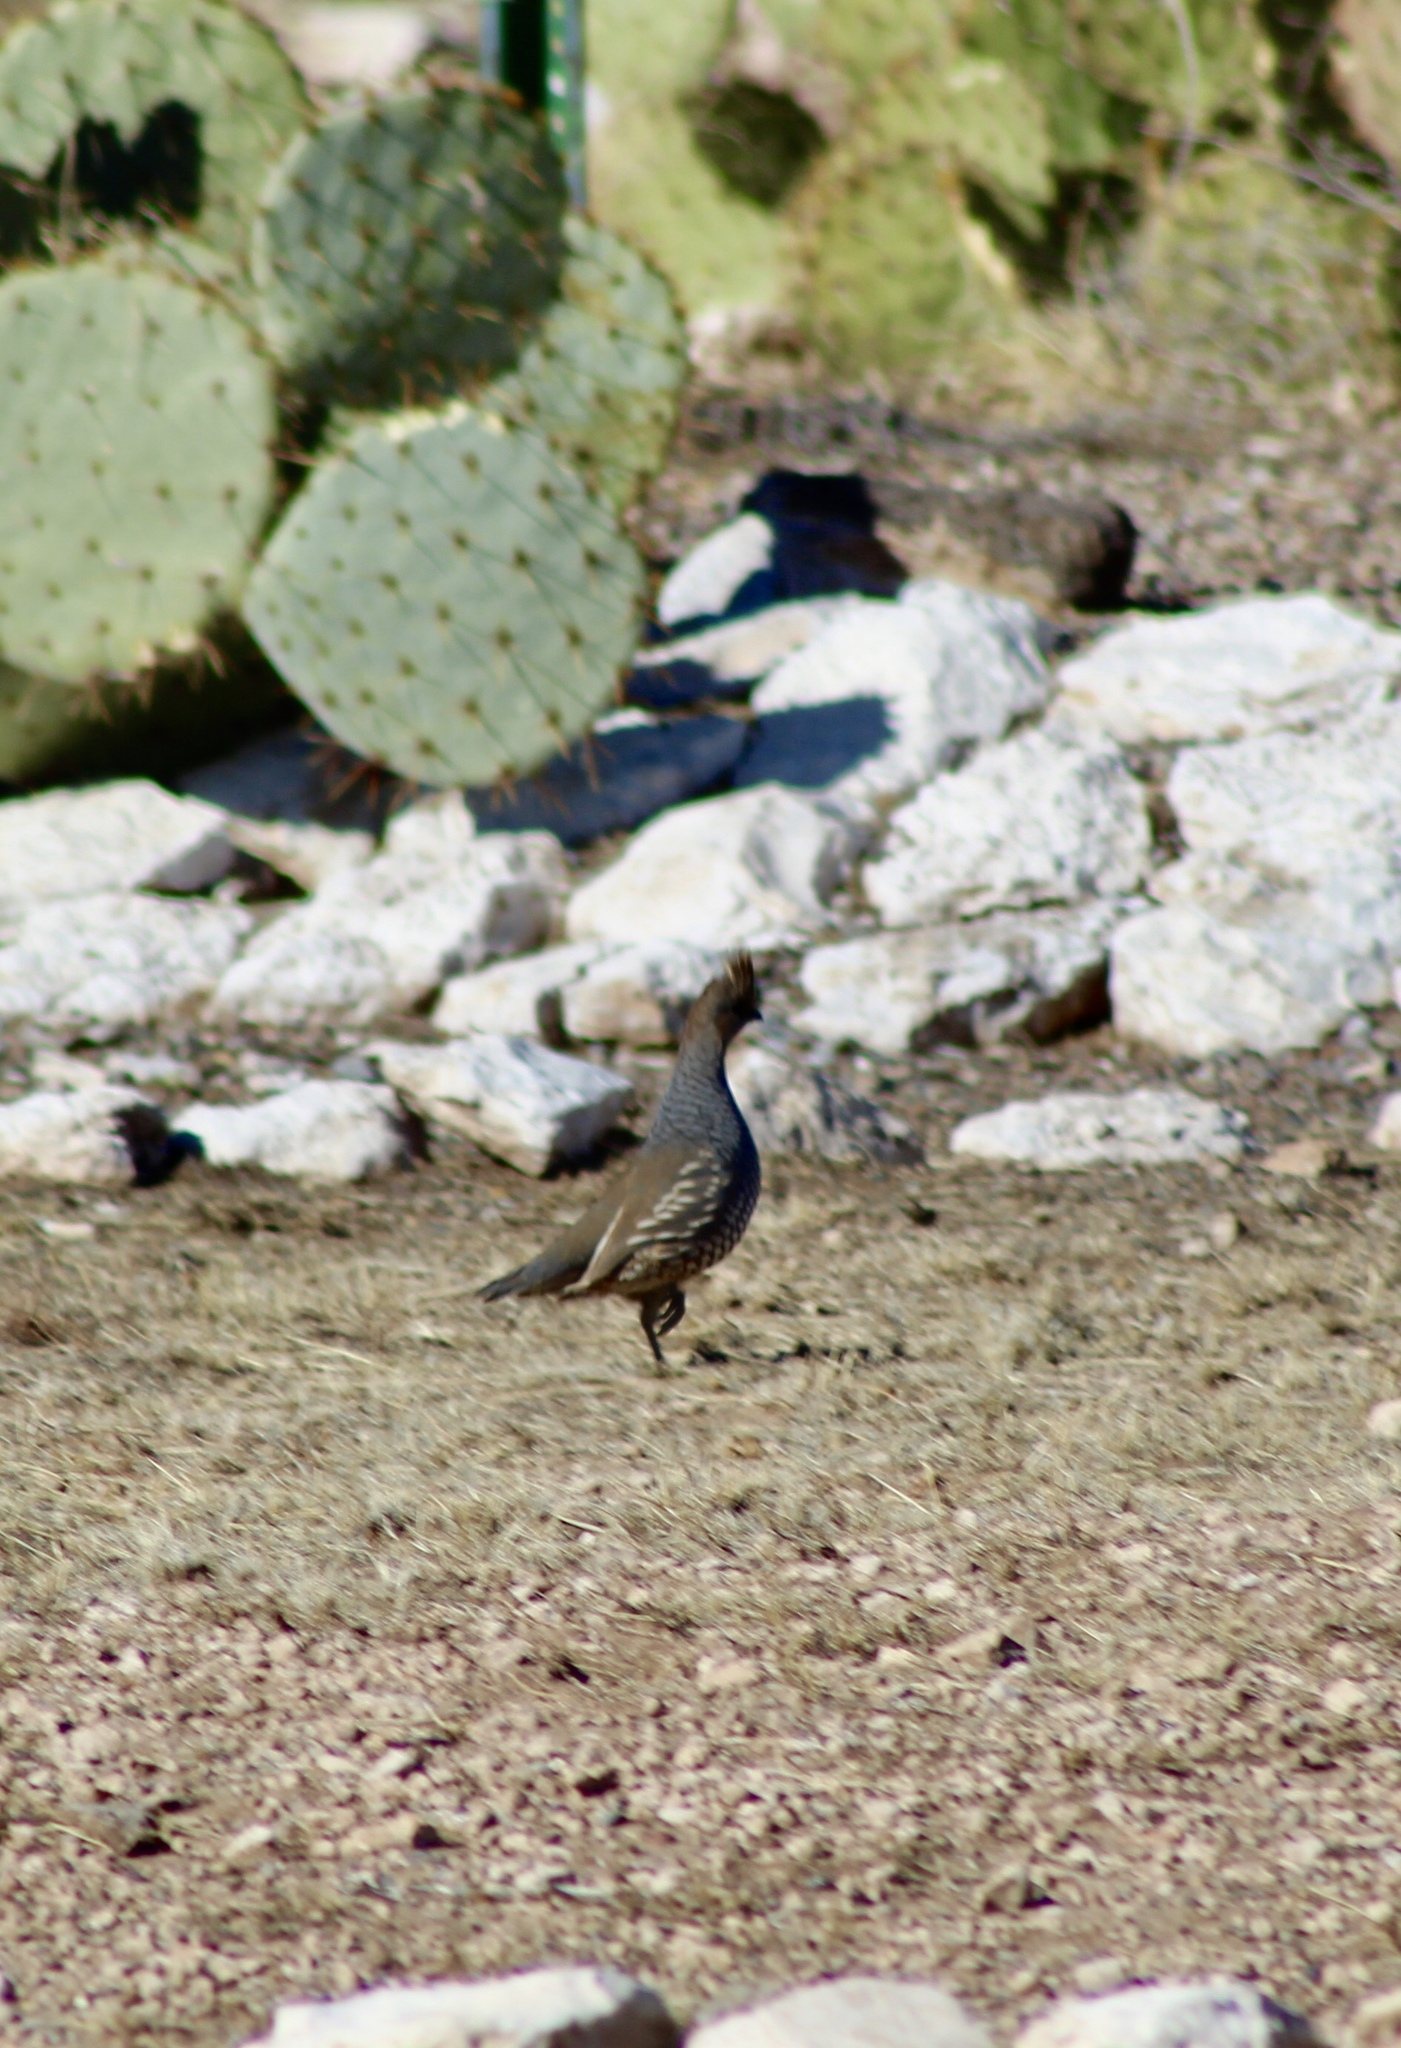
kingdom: Animalia
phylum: Chordata
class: Aves
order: Galliformes
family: Odontophoridae
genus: Callipepla
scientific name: Callipepla squamata
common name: Scaled quail
